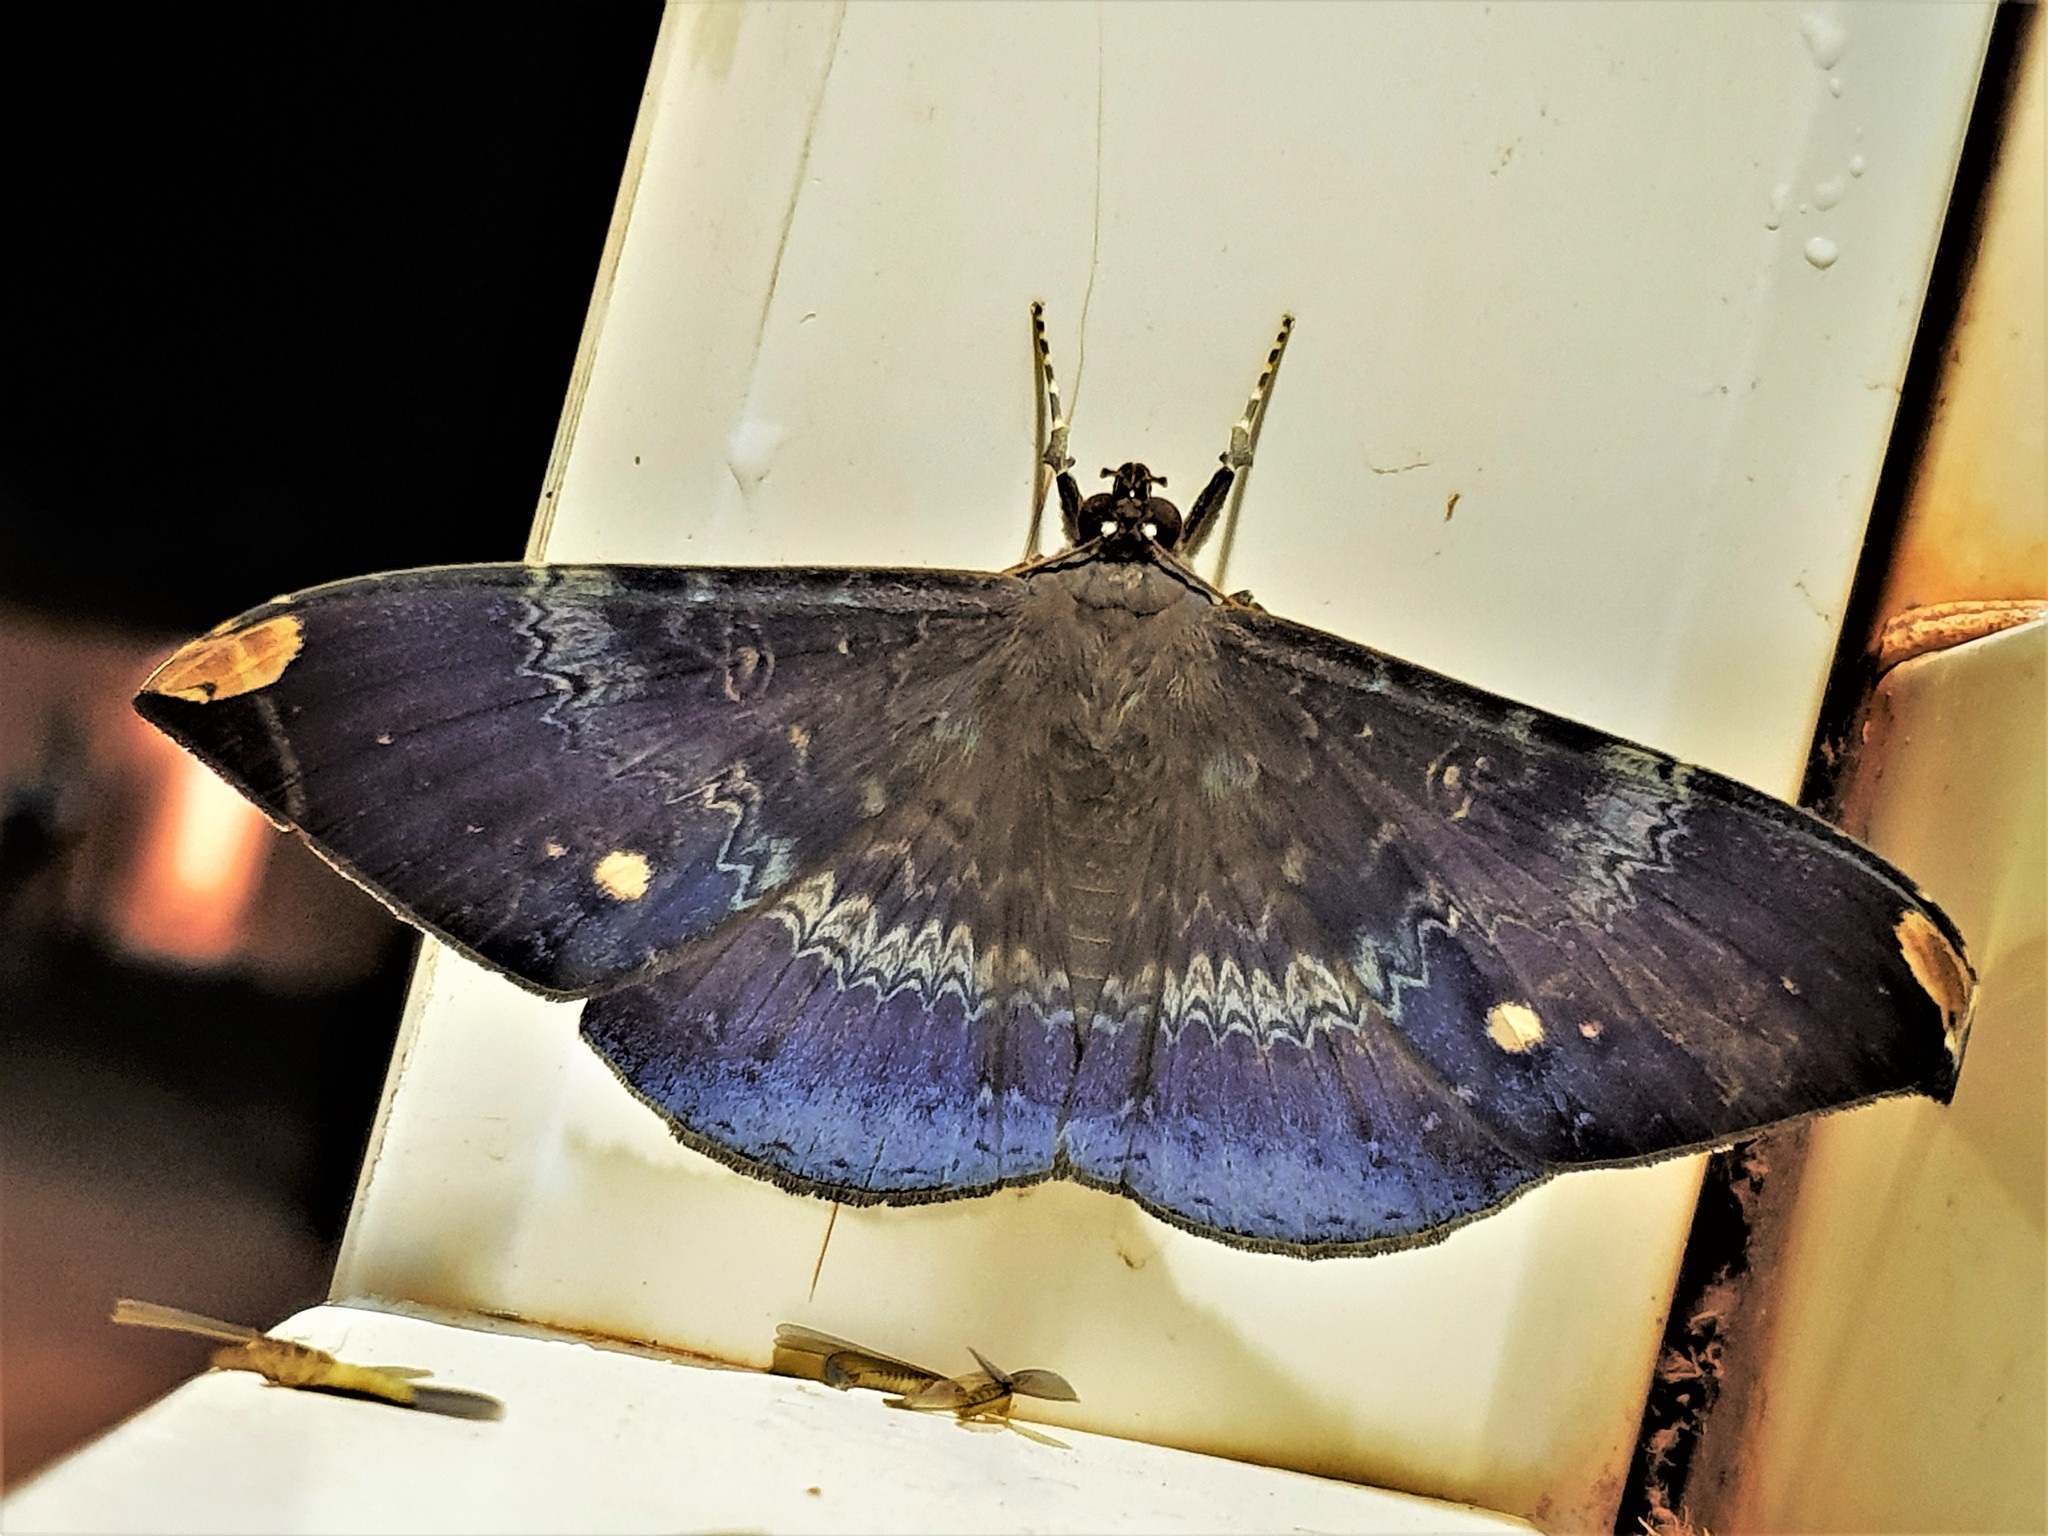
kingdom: Animalia
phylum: Arthropoda
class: Insecta
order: Lepidoptera
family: Erebidae
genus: Hemeroblemma
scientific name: Hemeroblemma dolosa
